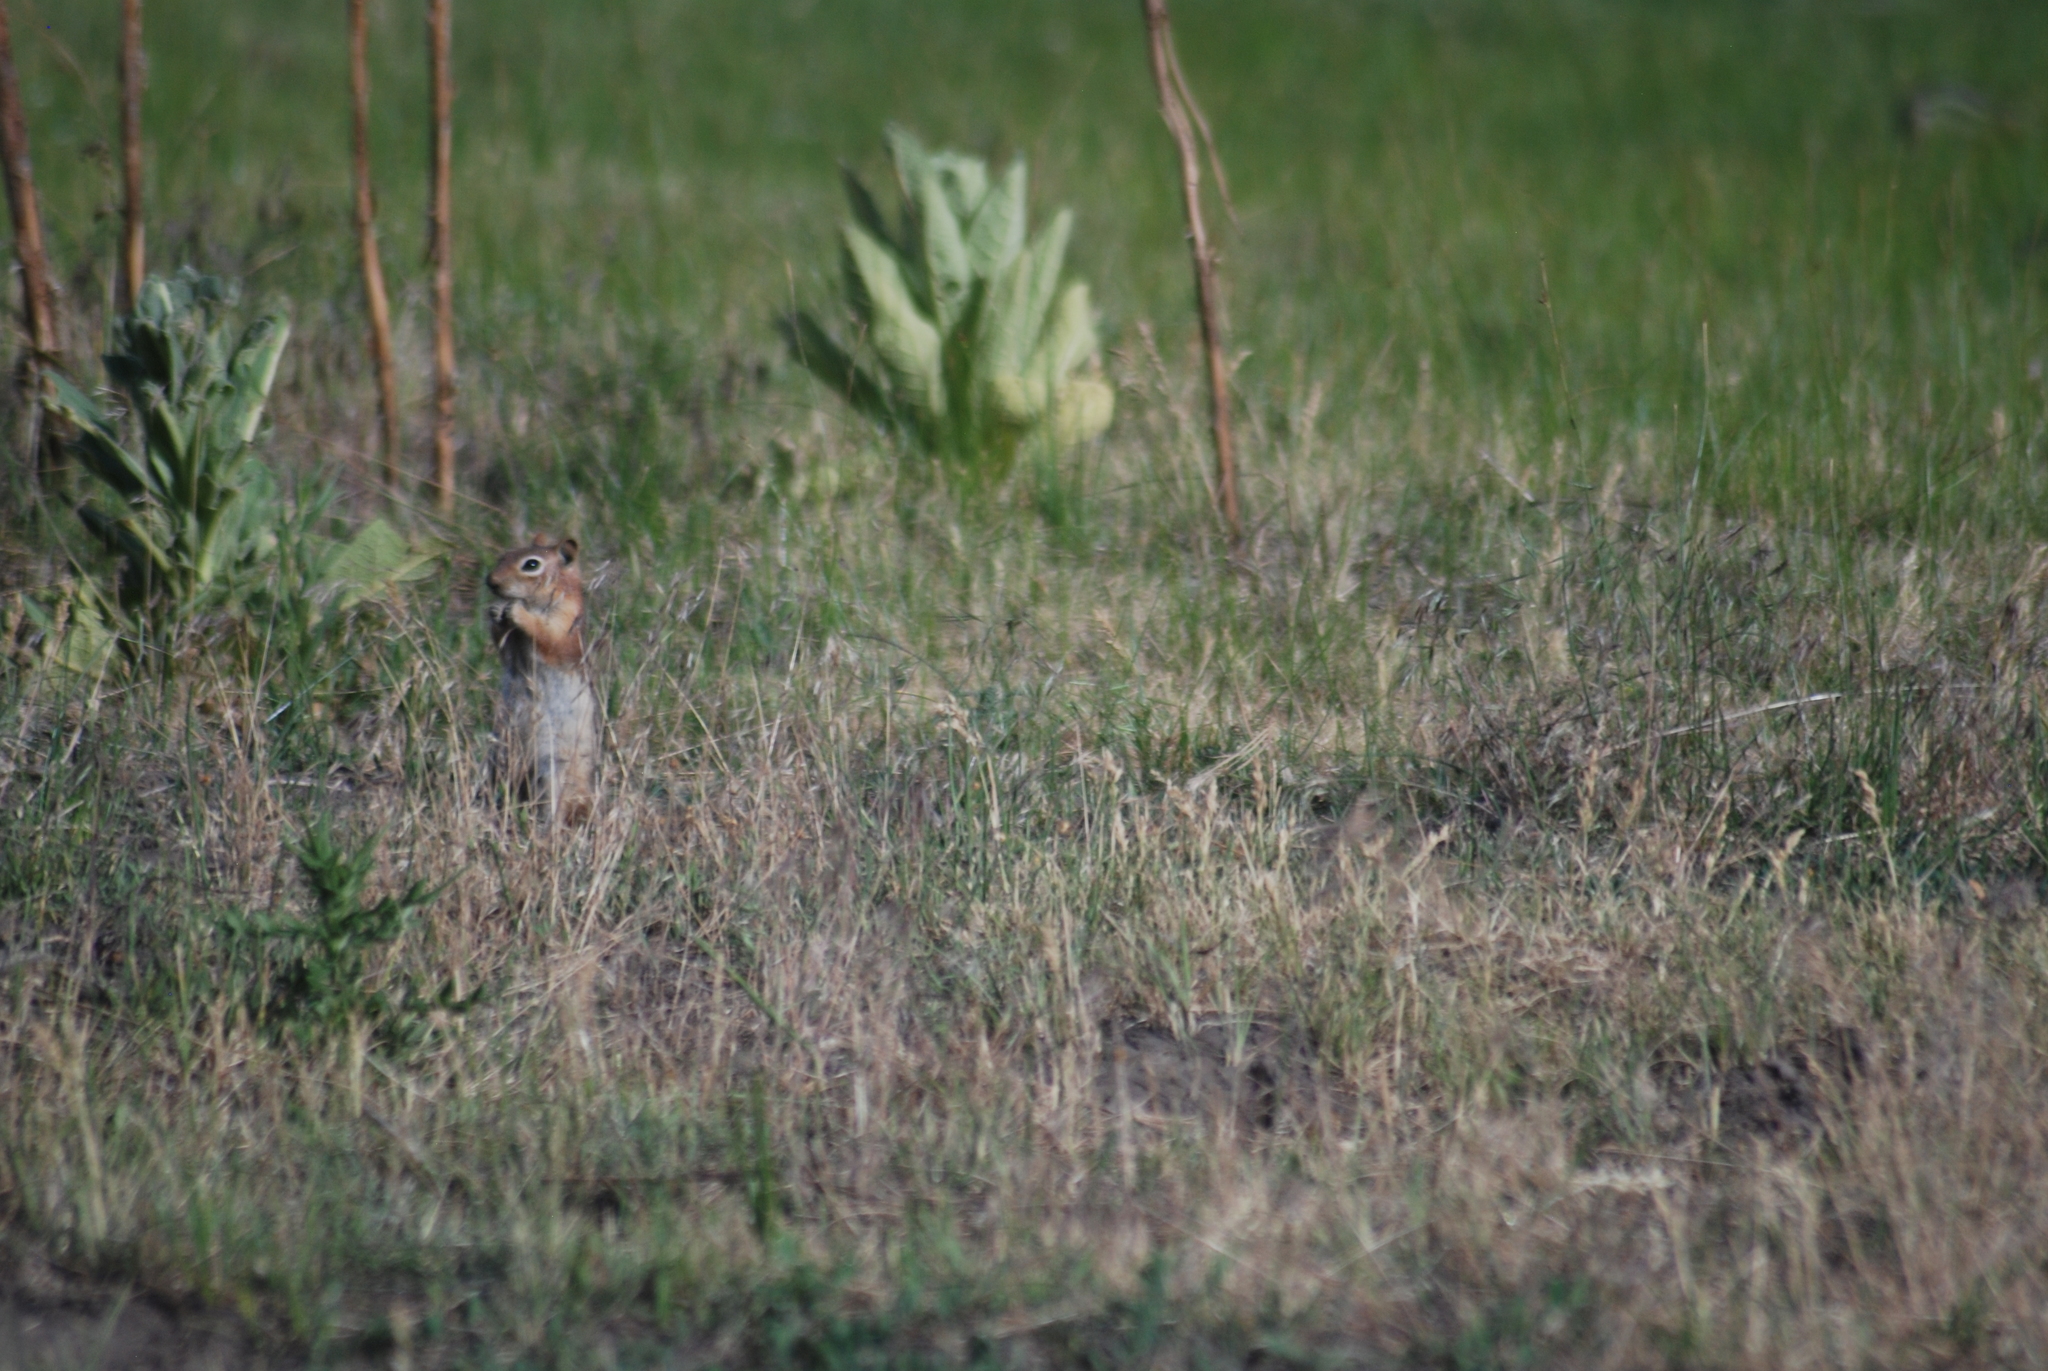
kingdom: Animalia
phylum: Chordata
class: Mammalia
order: Rodentia
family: Sciuridae
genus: Callospermophilus
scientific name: Callospermophilus lateralis
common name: Golden-mantled ground squirrel
